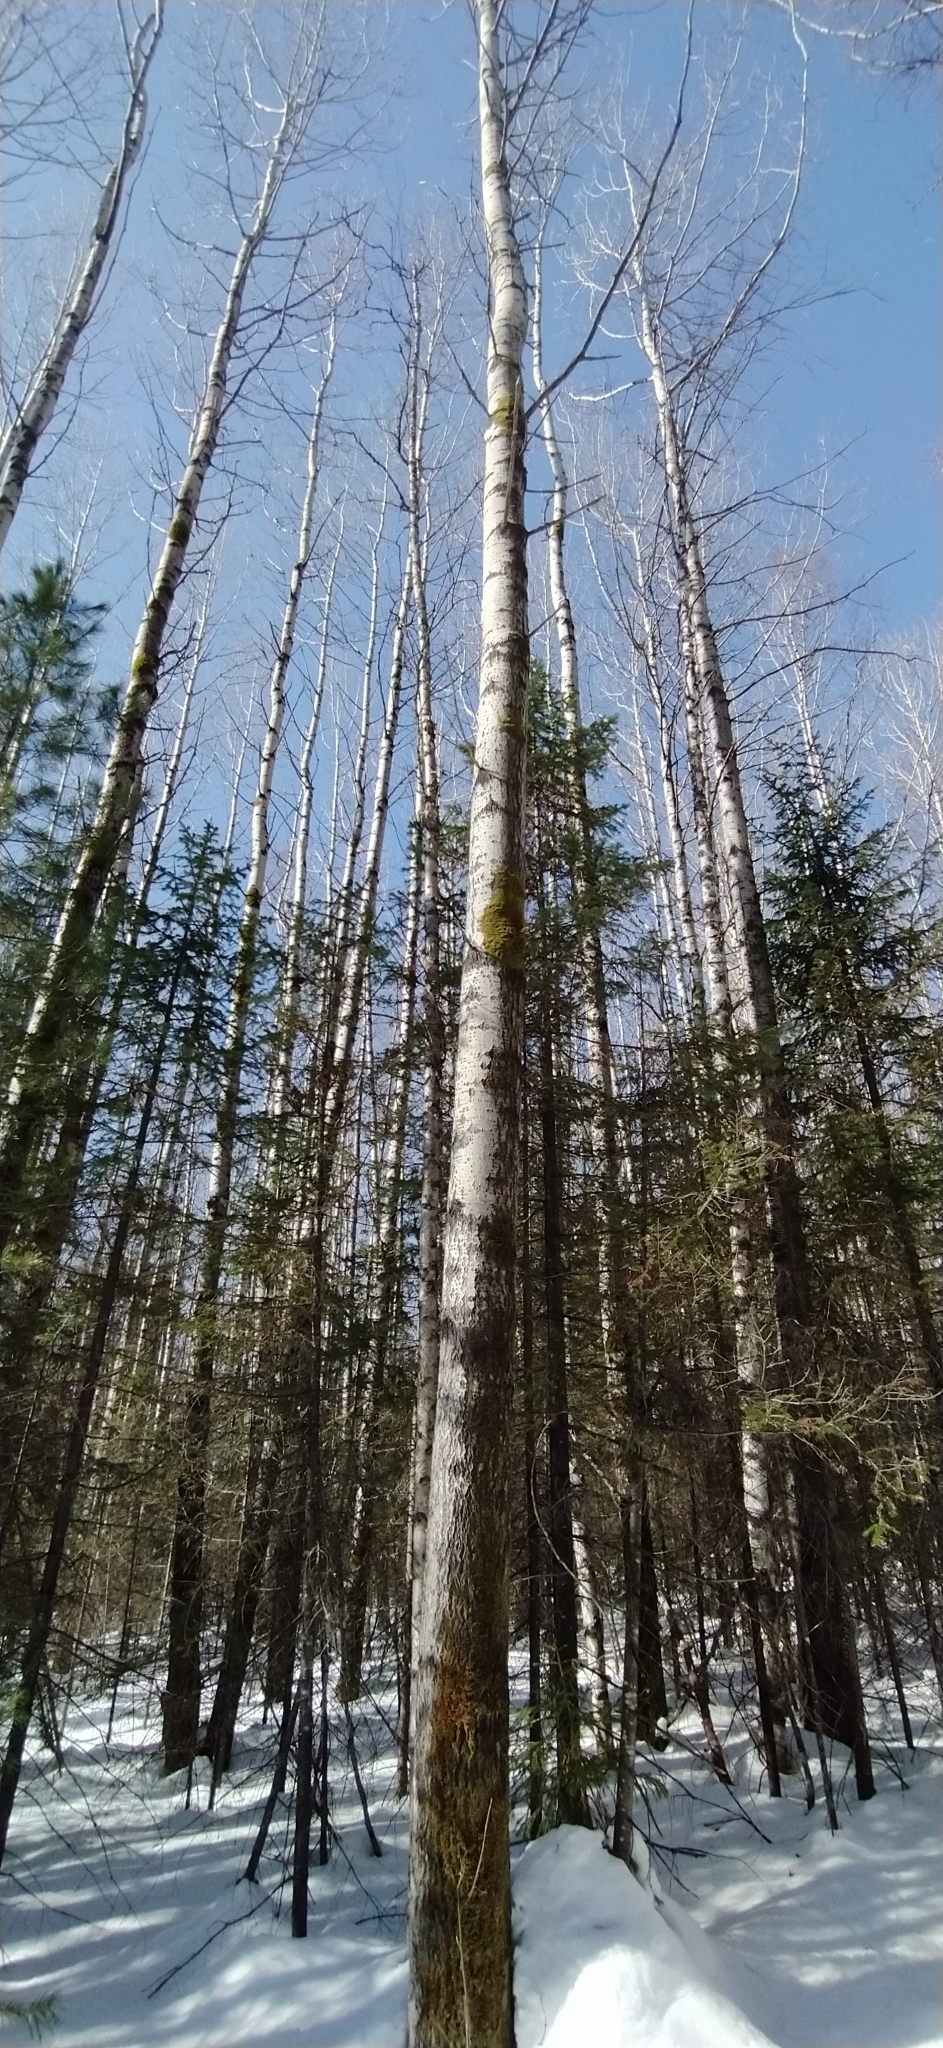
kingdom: Plantae
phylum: Tracheophyta
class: Magnoliopsida
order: Malpighiales
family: Salicaceae
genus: Populus
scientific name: Populus tremula
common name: European aspen
